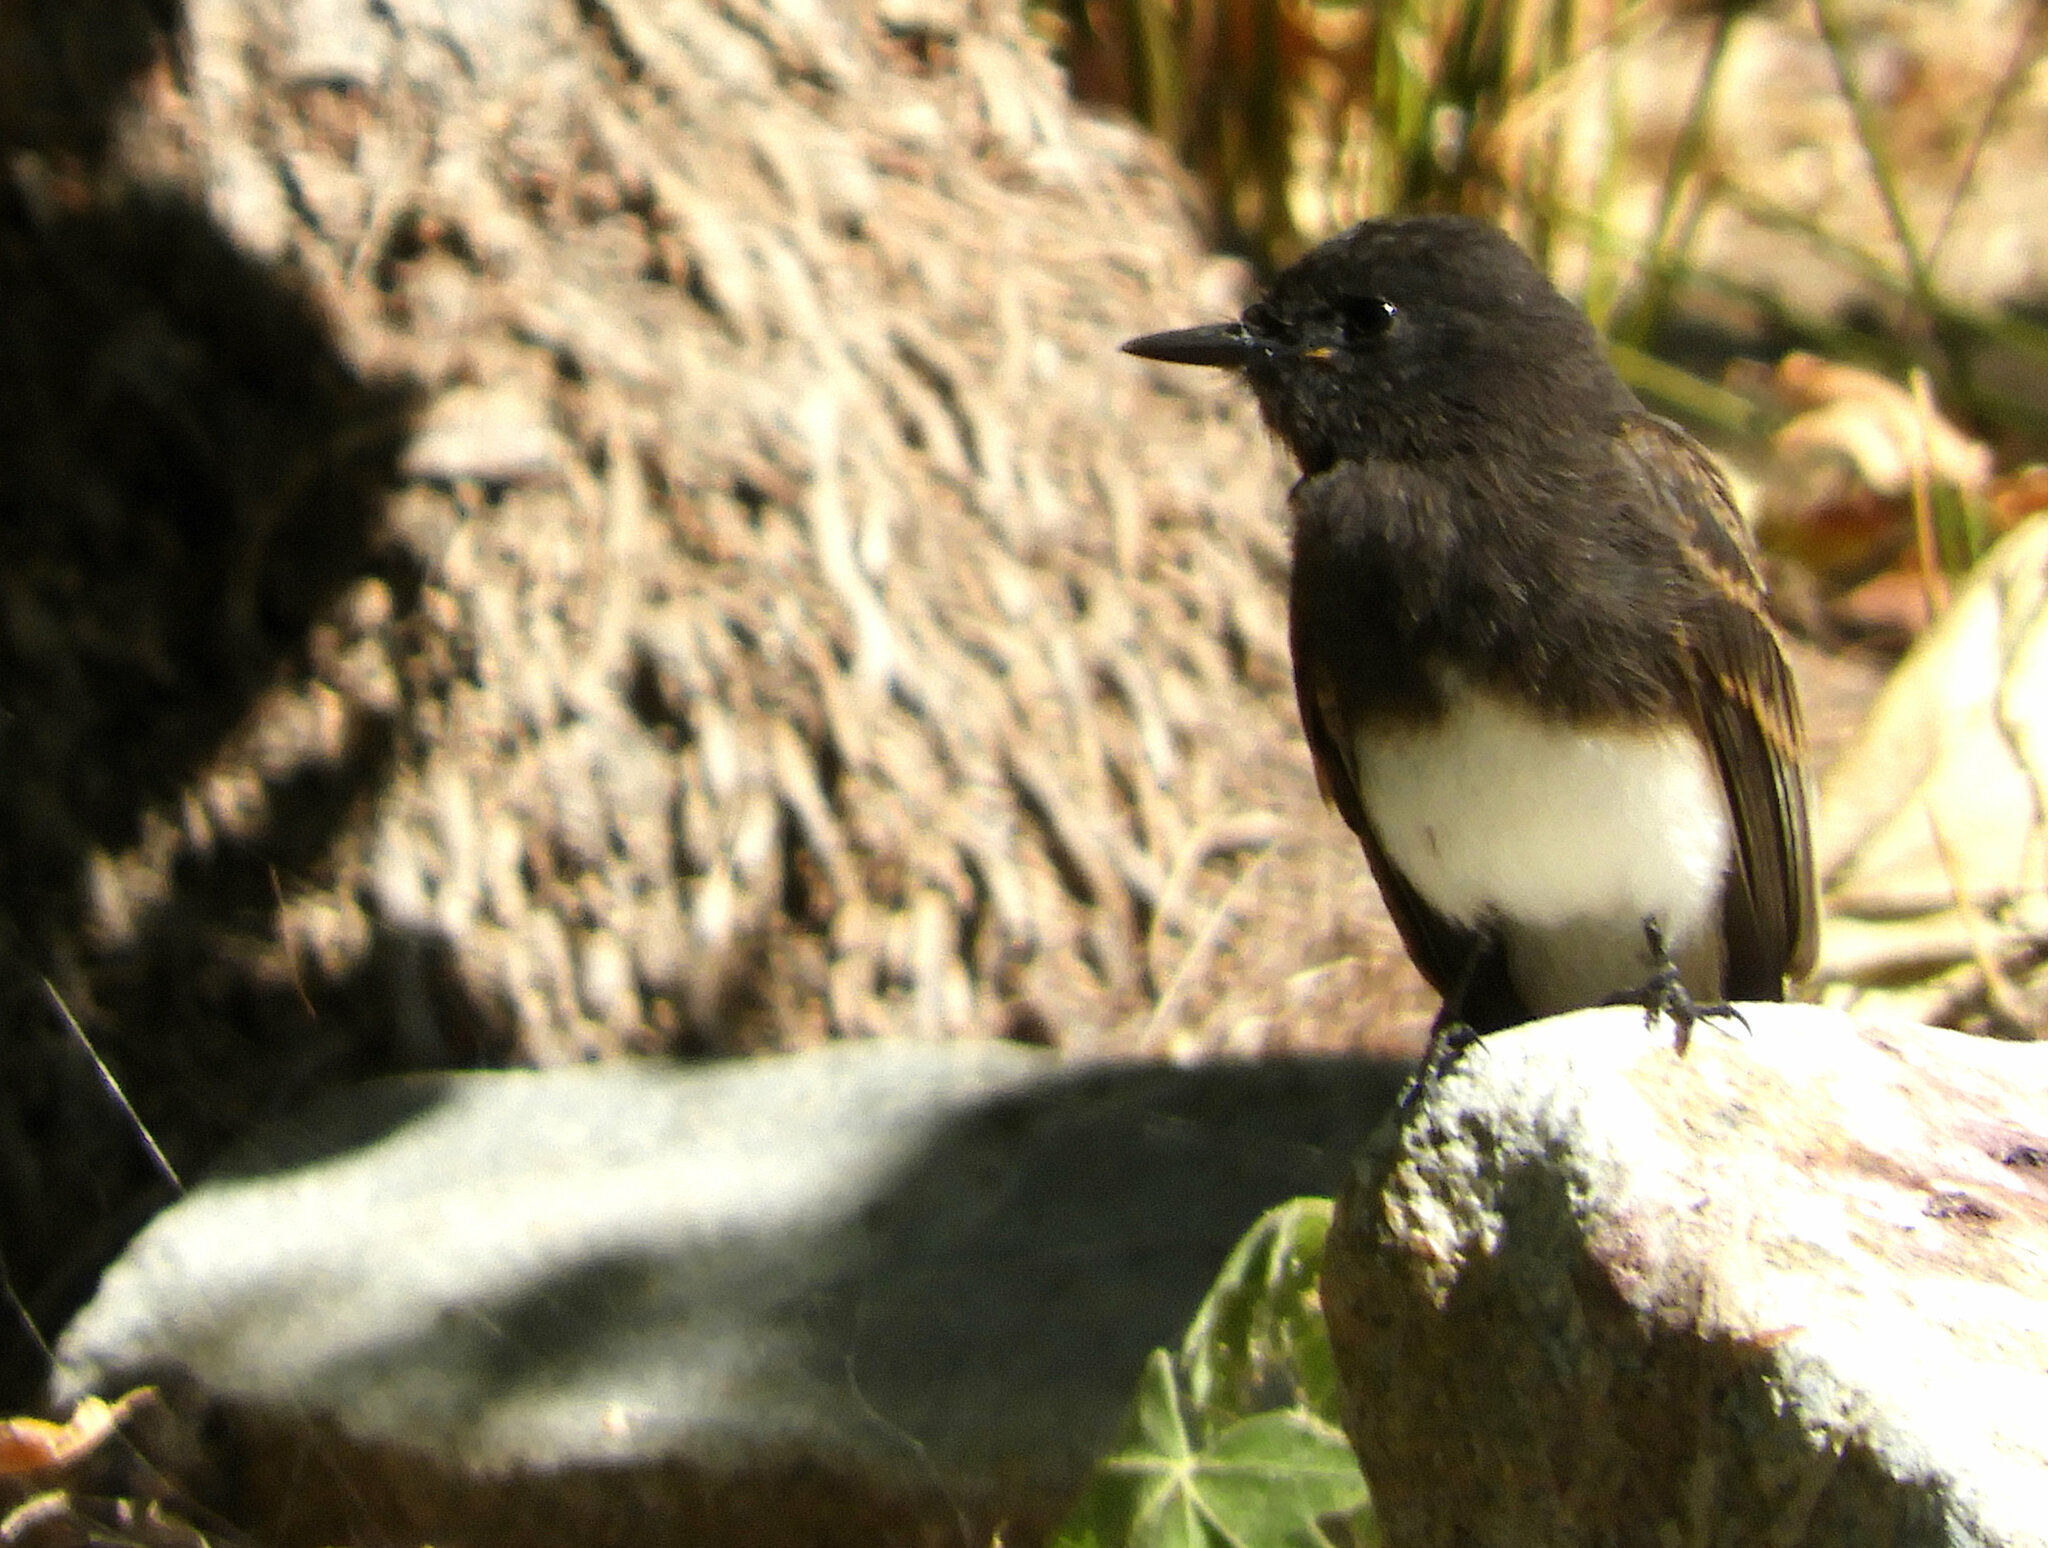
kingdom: Animalia
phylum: Chordata
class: Aves
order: Passeriformes
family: Tyrannidae
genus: Sayornis
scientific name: Sayornis nigricans
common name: Black phoebe
